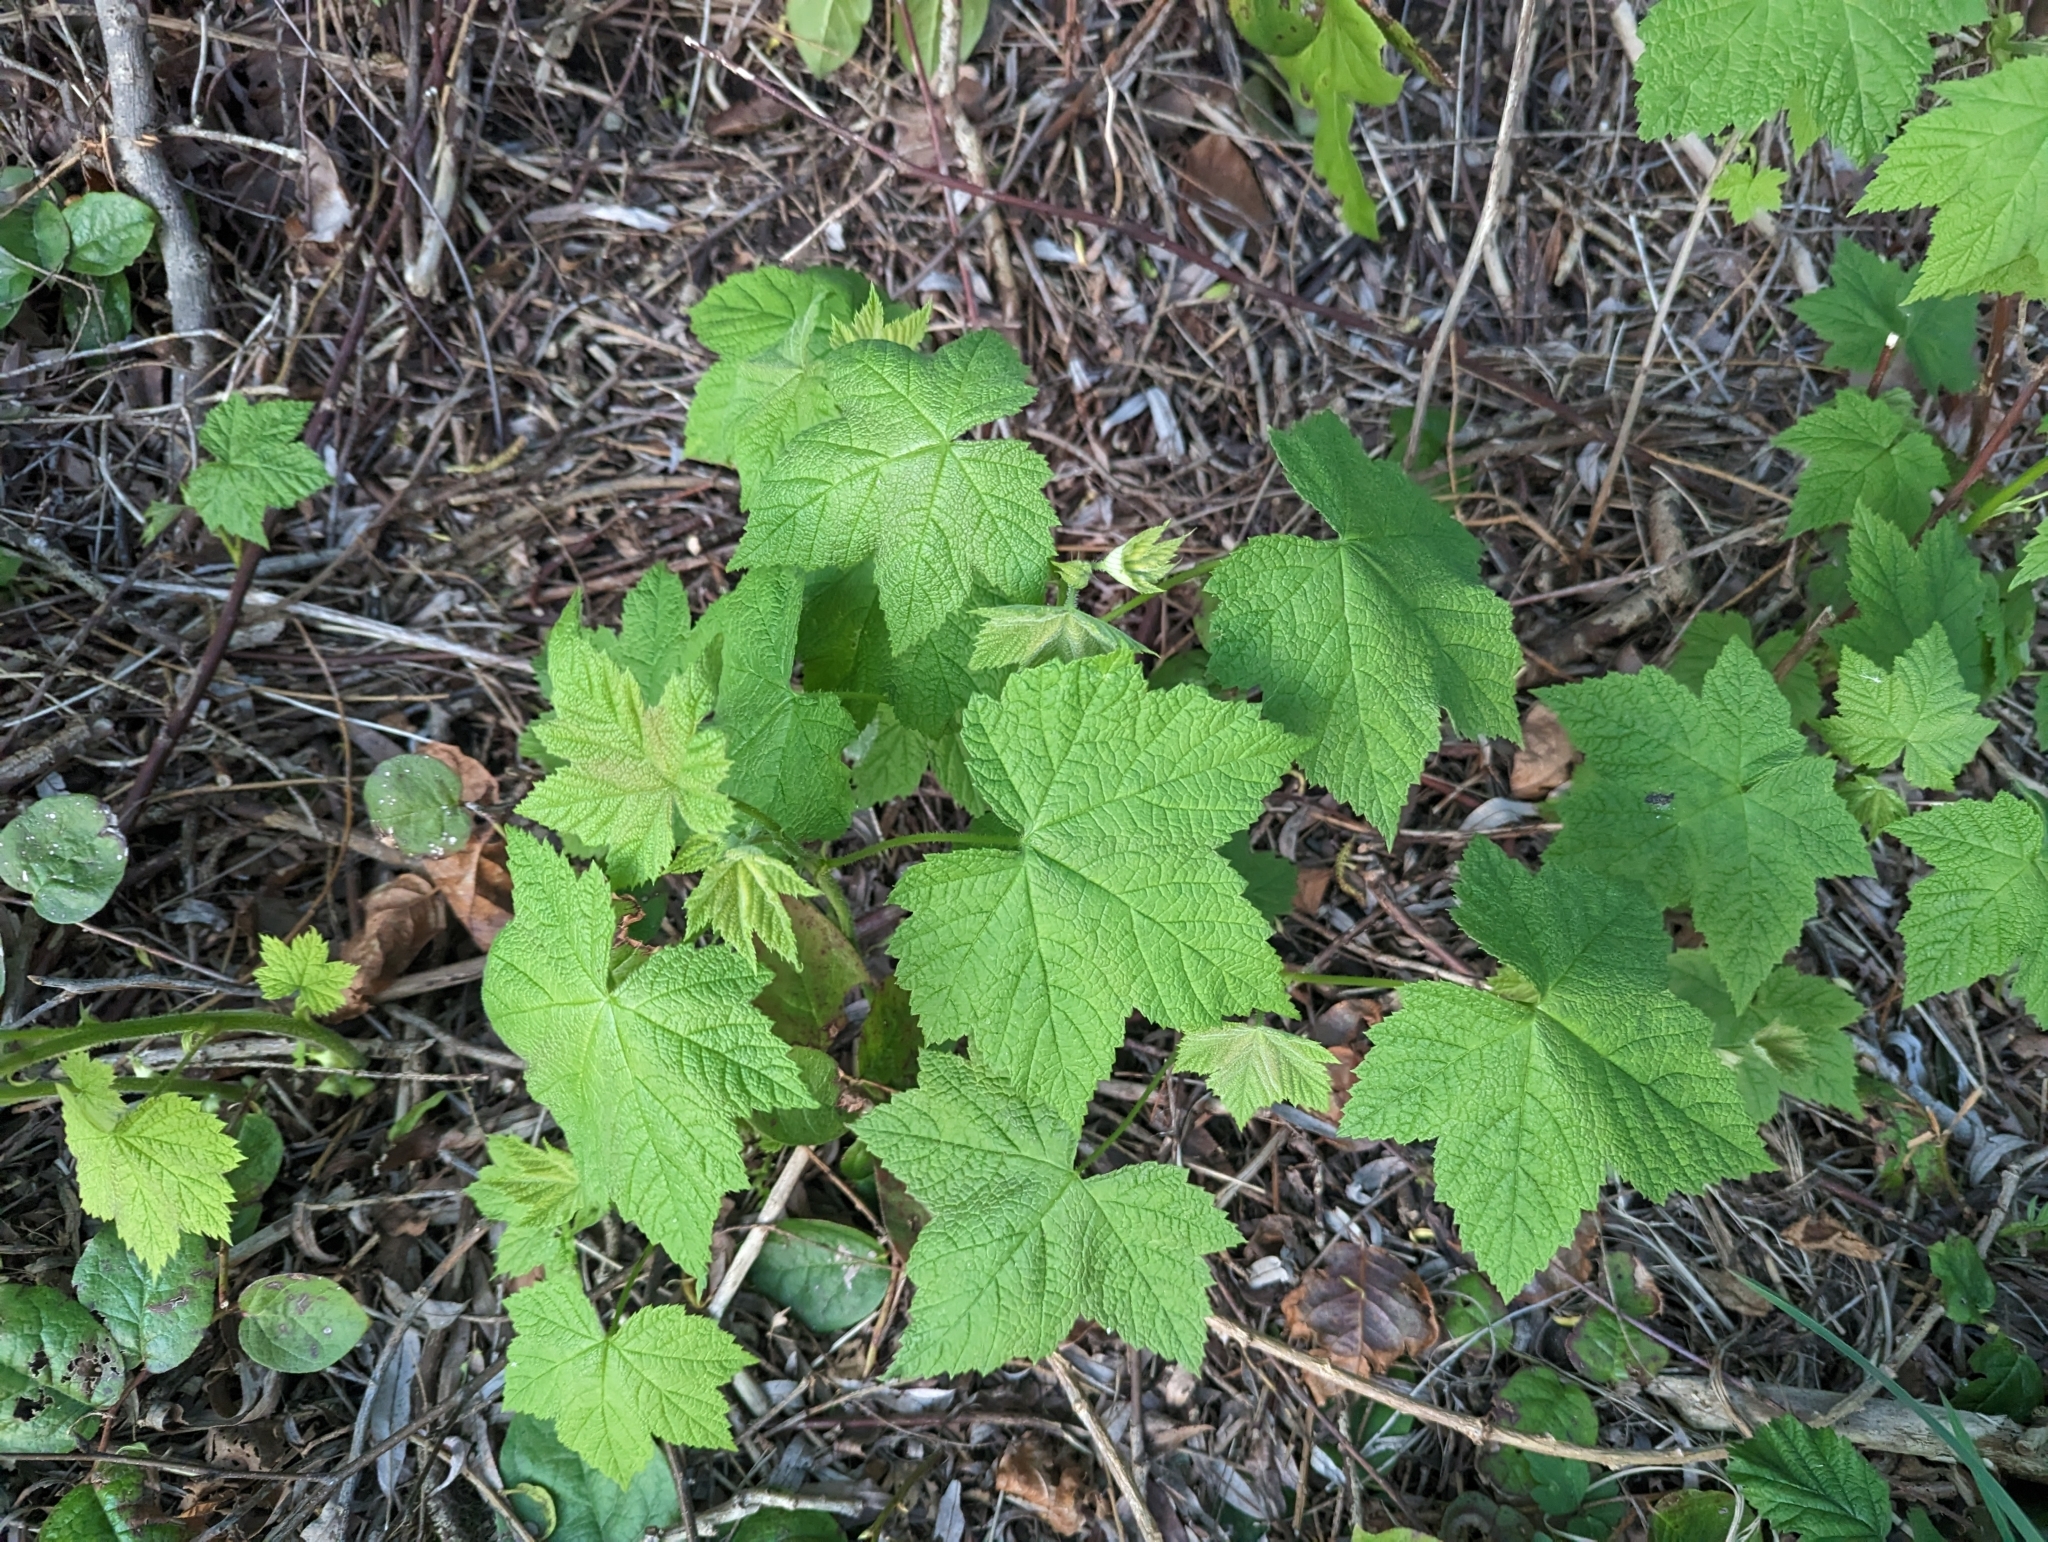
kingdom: Plantae
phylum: Tracheophyta
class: Magnoliopsida
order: Rosales
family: Rosaceae
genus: Rubus
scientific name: Rubus parviflorus
